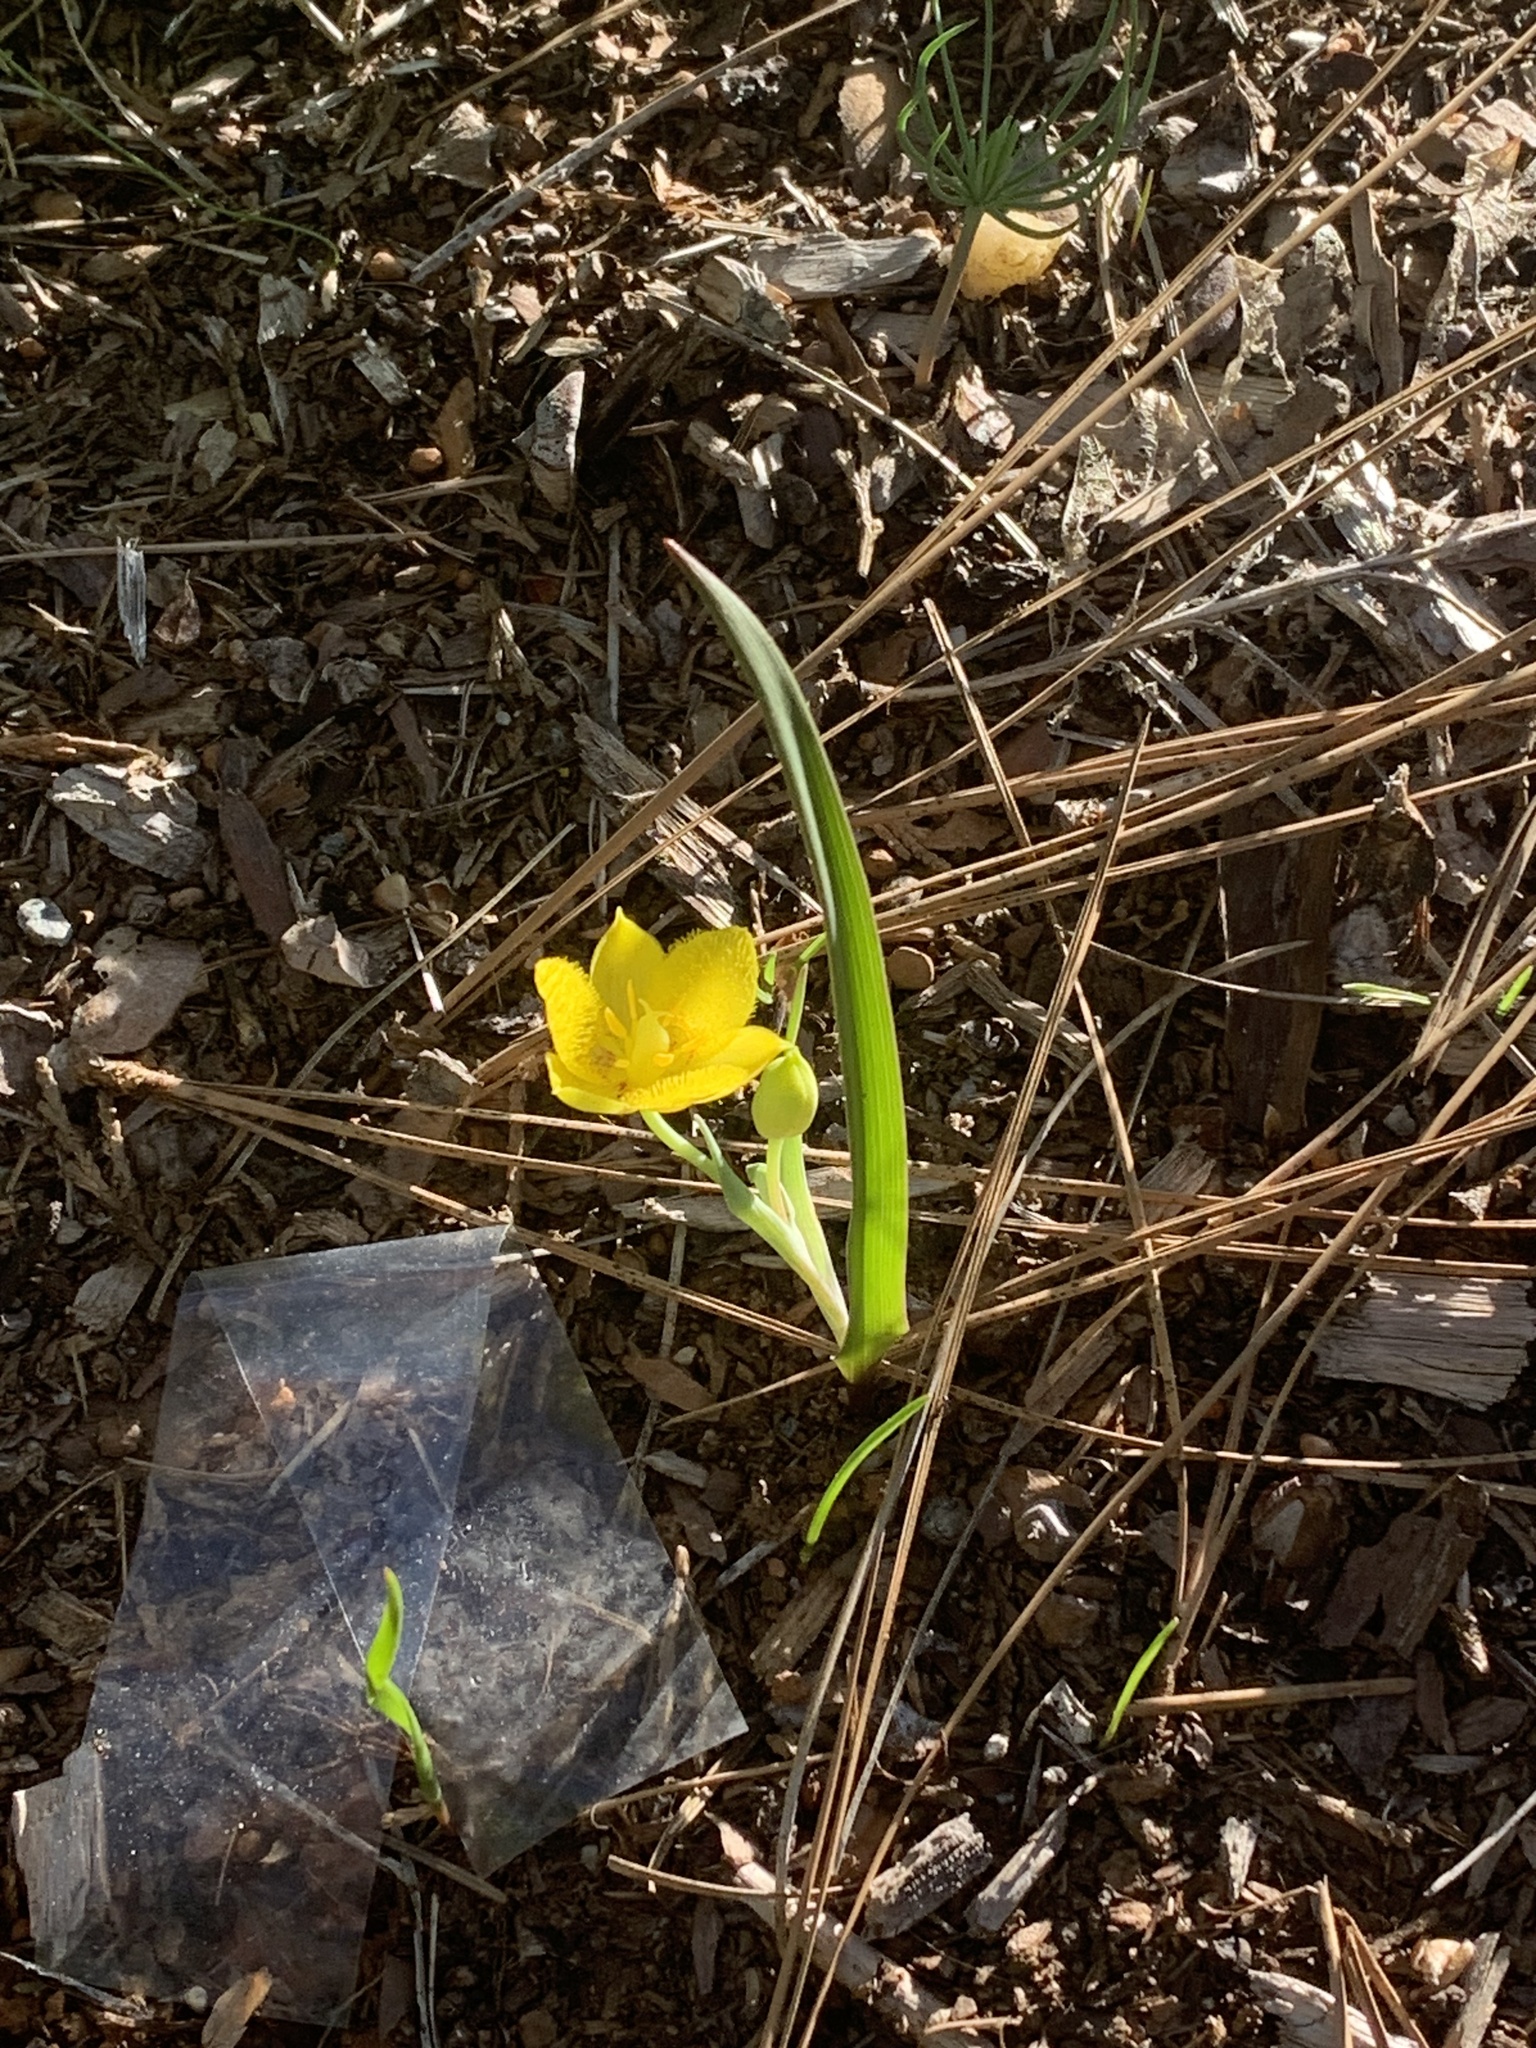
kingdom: Plantae
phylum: Tracheophyta
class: Liliopsida
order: Liliales
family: Liliaceae
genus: Calochortus
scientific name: Calochortus monophyllus
